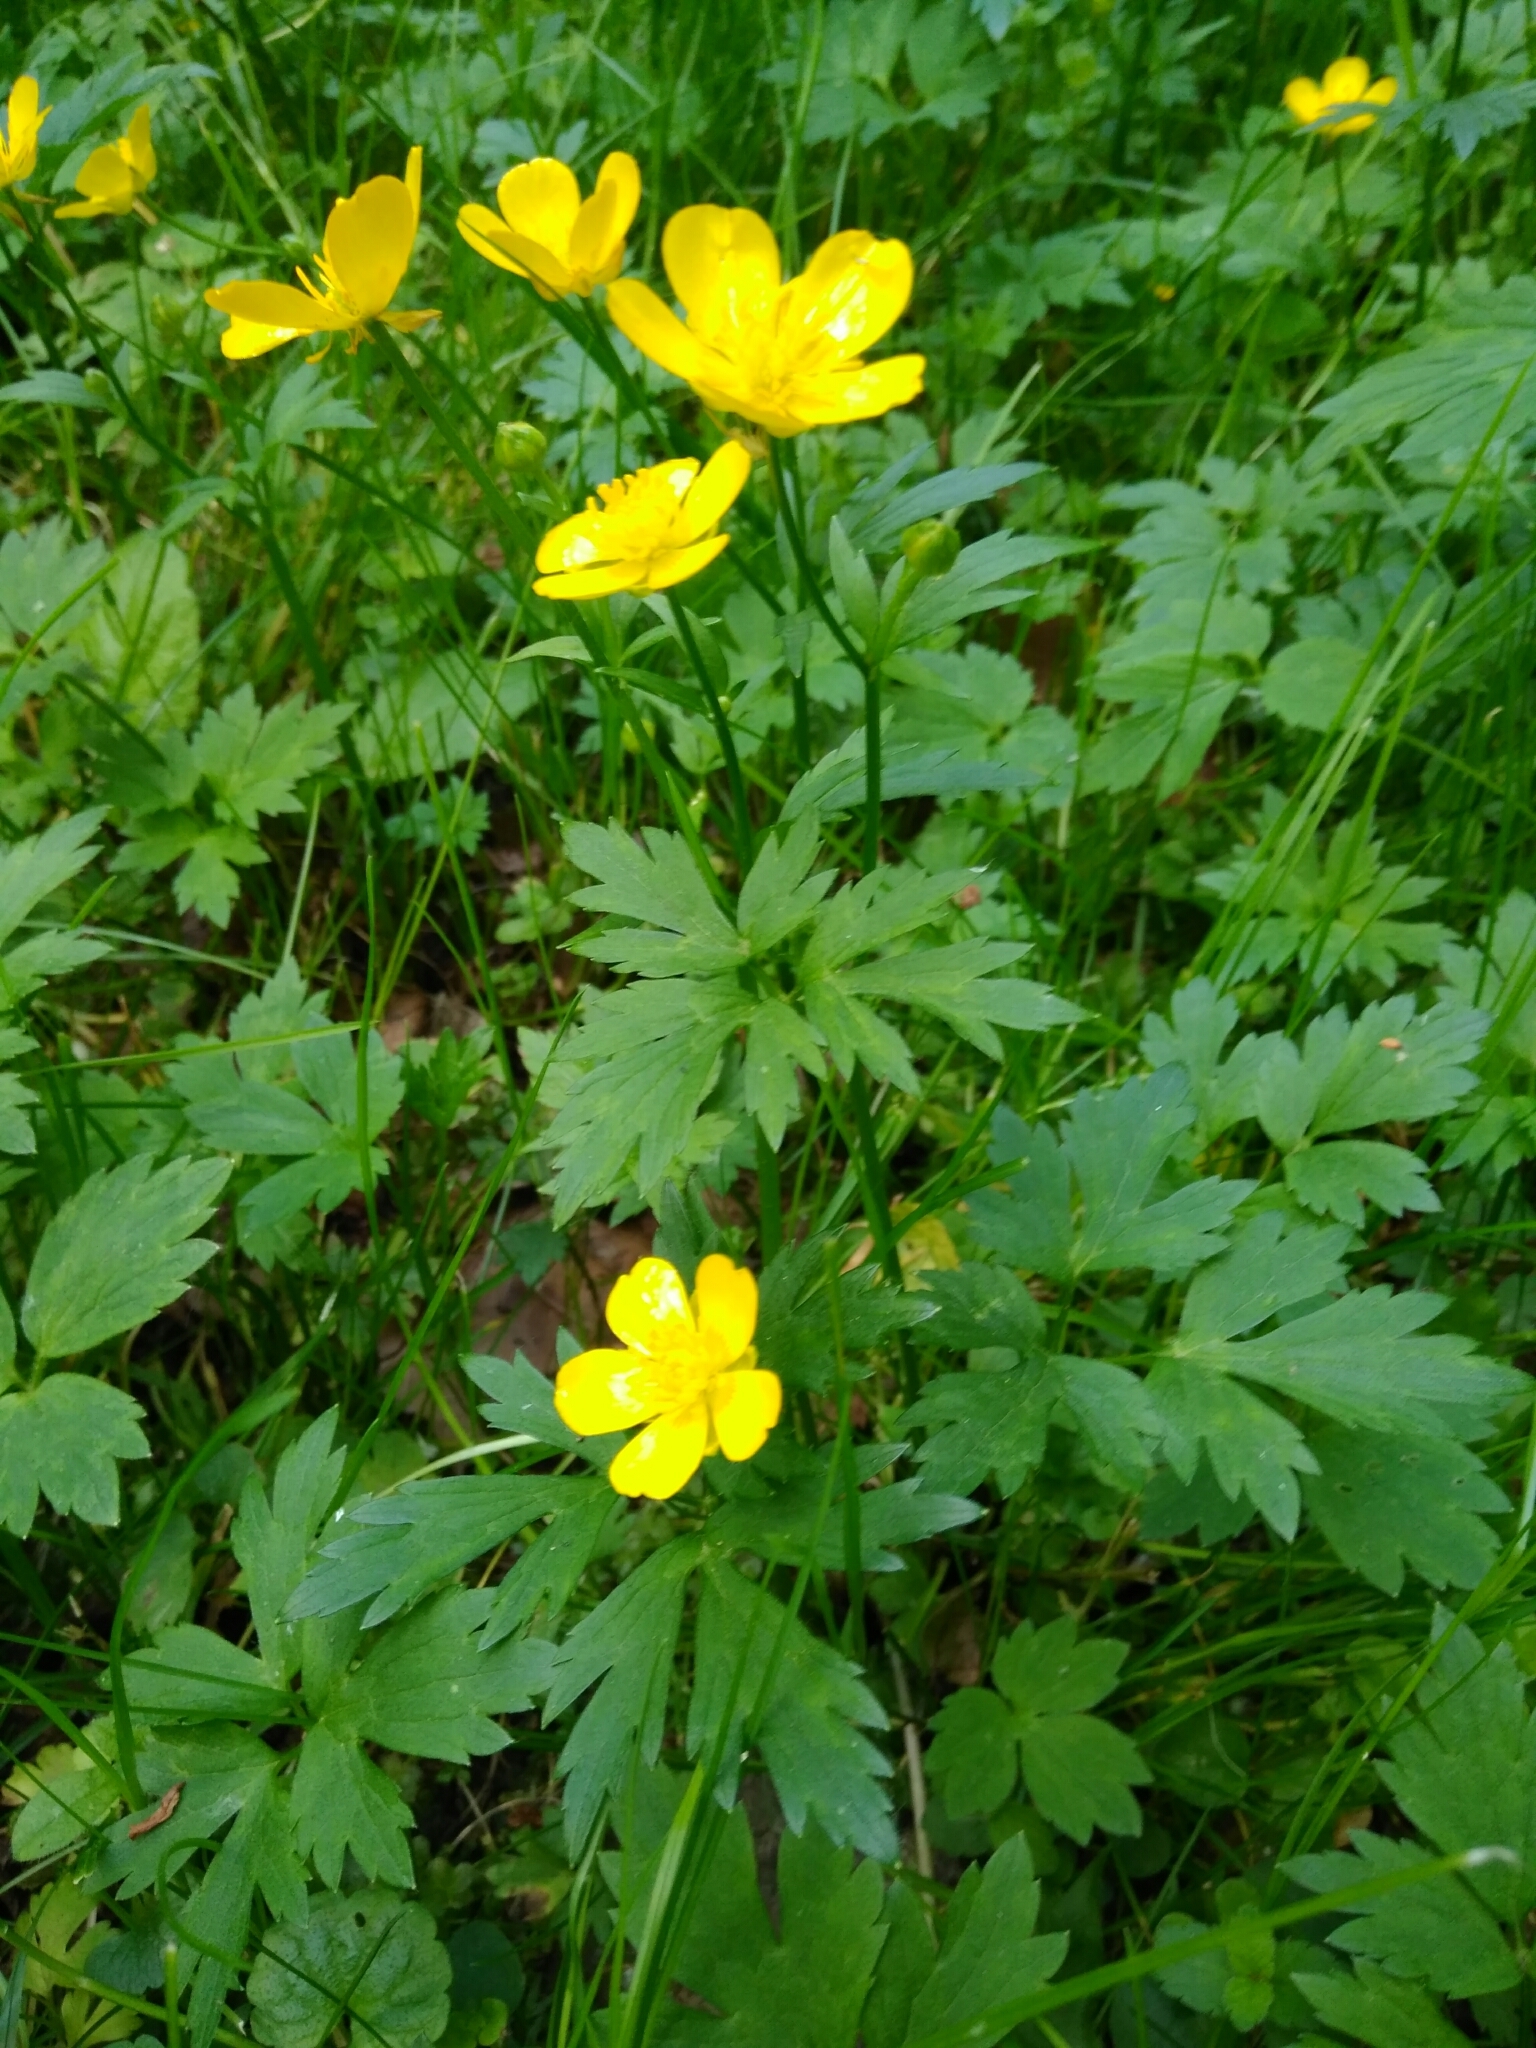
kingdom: Plantae
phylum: Tracheophyta
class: Magnoliopsida
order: Ranunculales
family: Ranunculaceae
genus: Ranunculus
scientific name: Ranunculus repens
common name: Creeping buttercup
